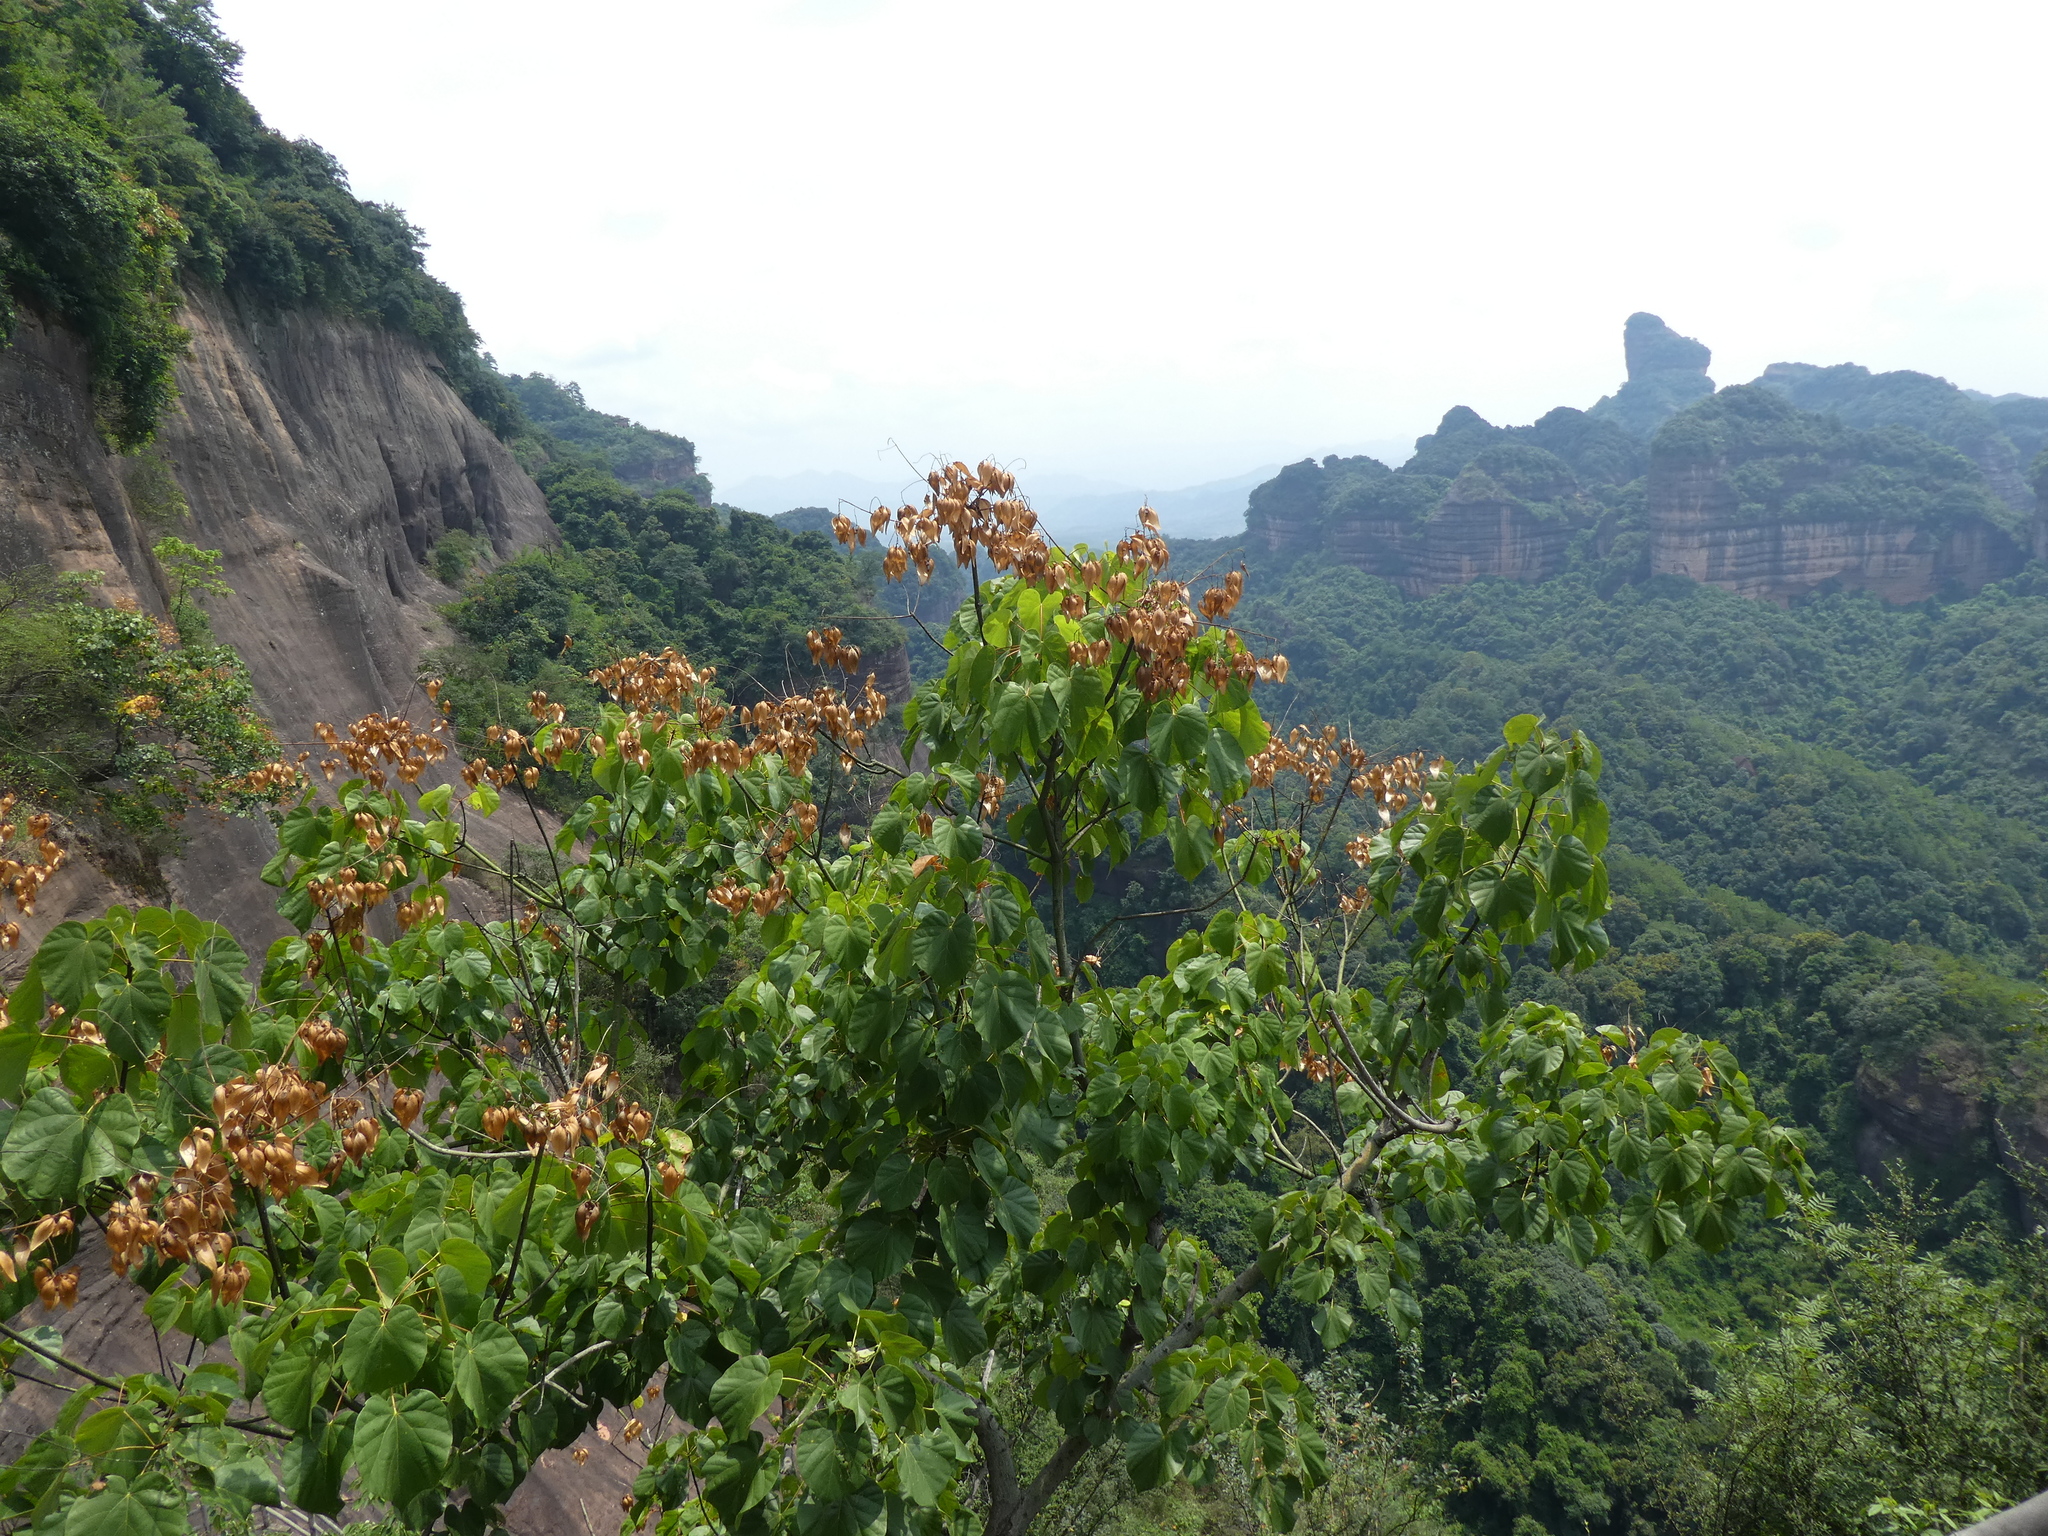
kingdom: Plantae
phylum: Tracheophyta
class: Magnoliopsida
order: Malvales
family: Malvaceae
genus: Firmiana
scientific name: Firmiana danxiaensis
